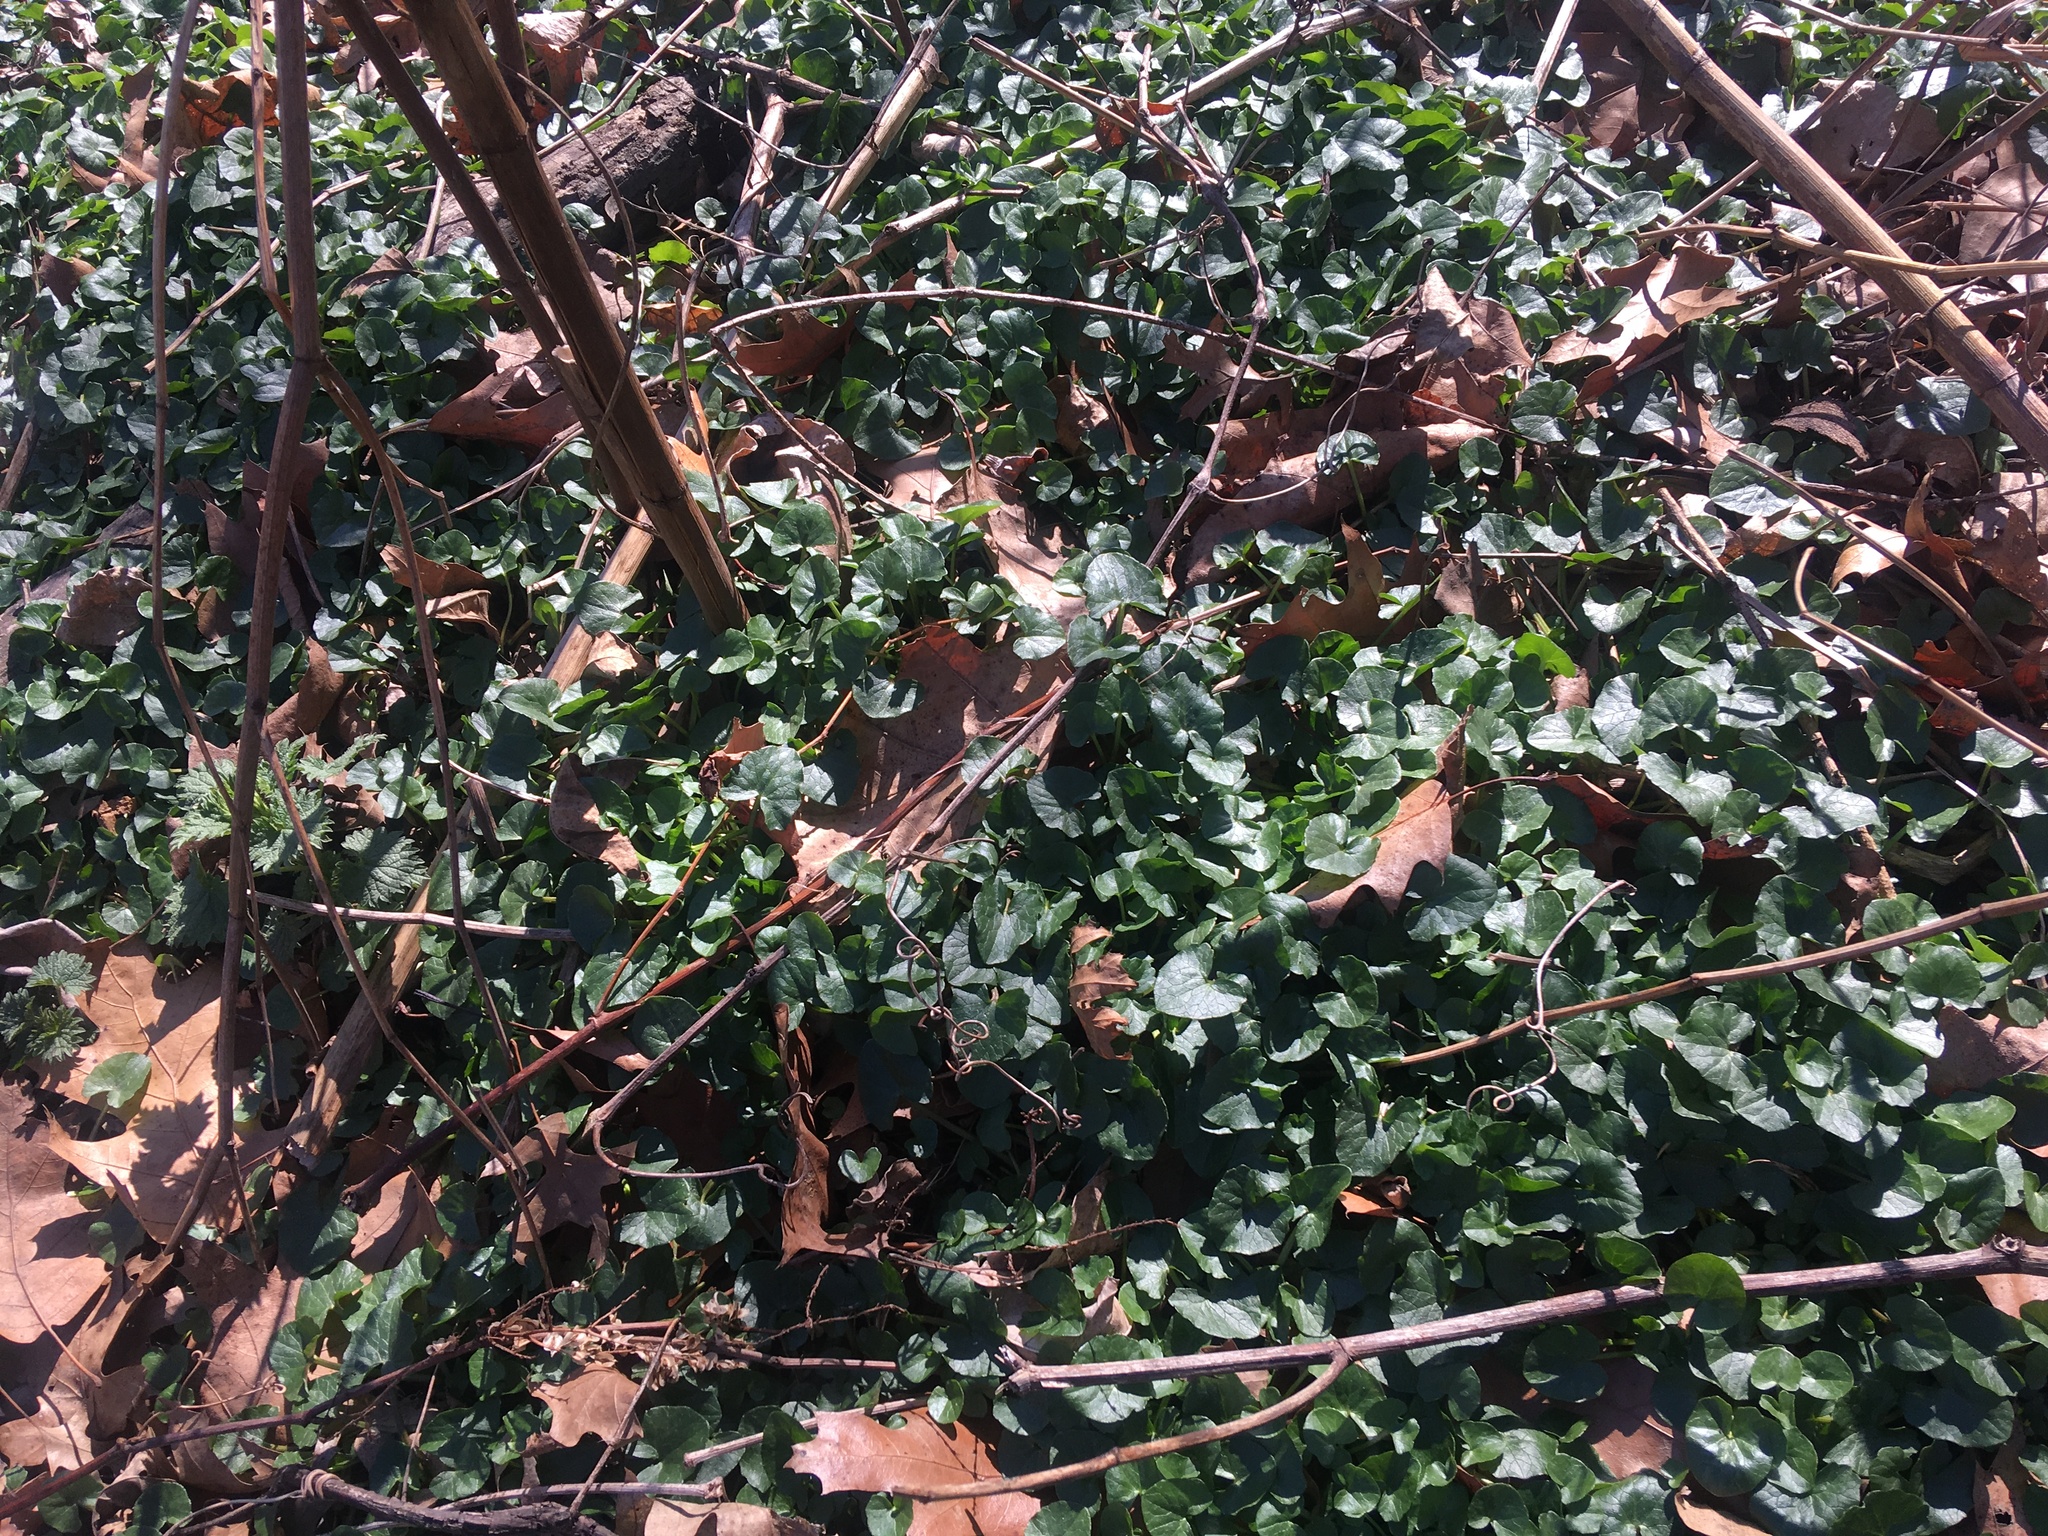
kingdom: Plantae
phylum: Tracheophyta
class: Magnoliopsida
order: Ranunculales
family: Ranunculaceae
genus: Ficaria
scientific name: Ficaria verna
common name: Lesser celandine
